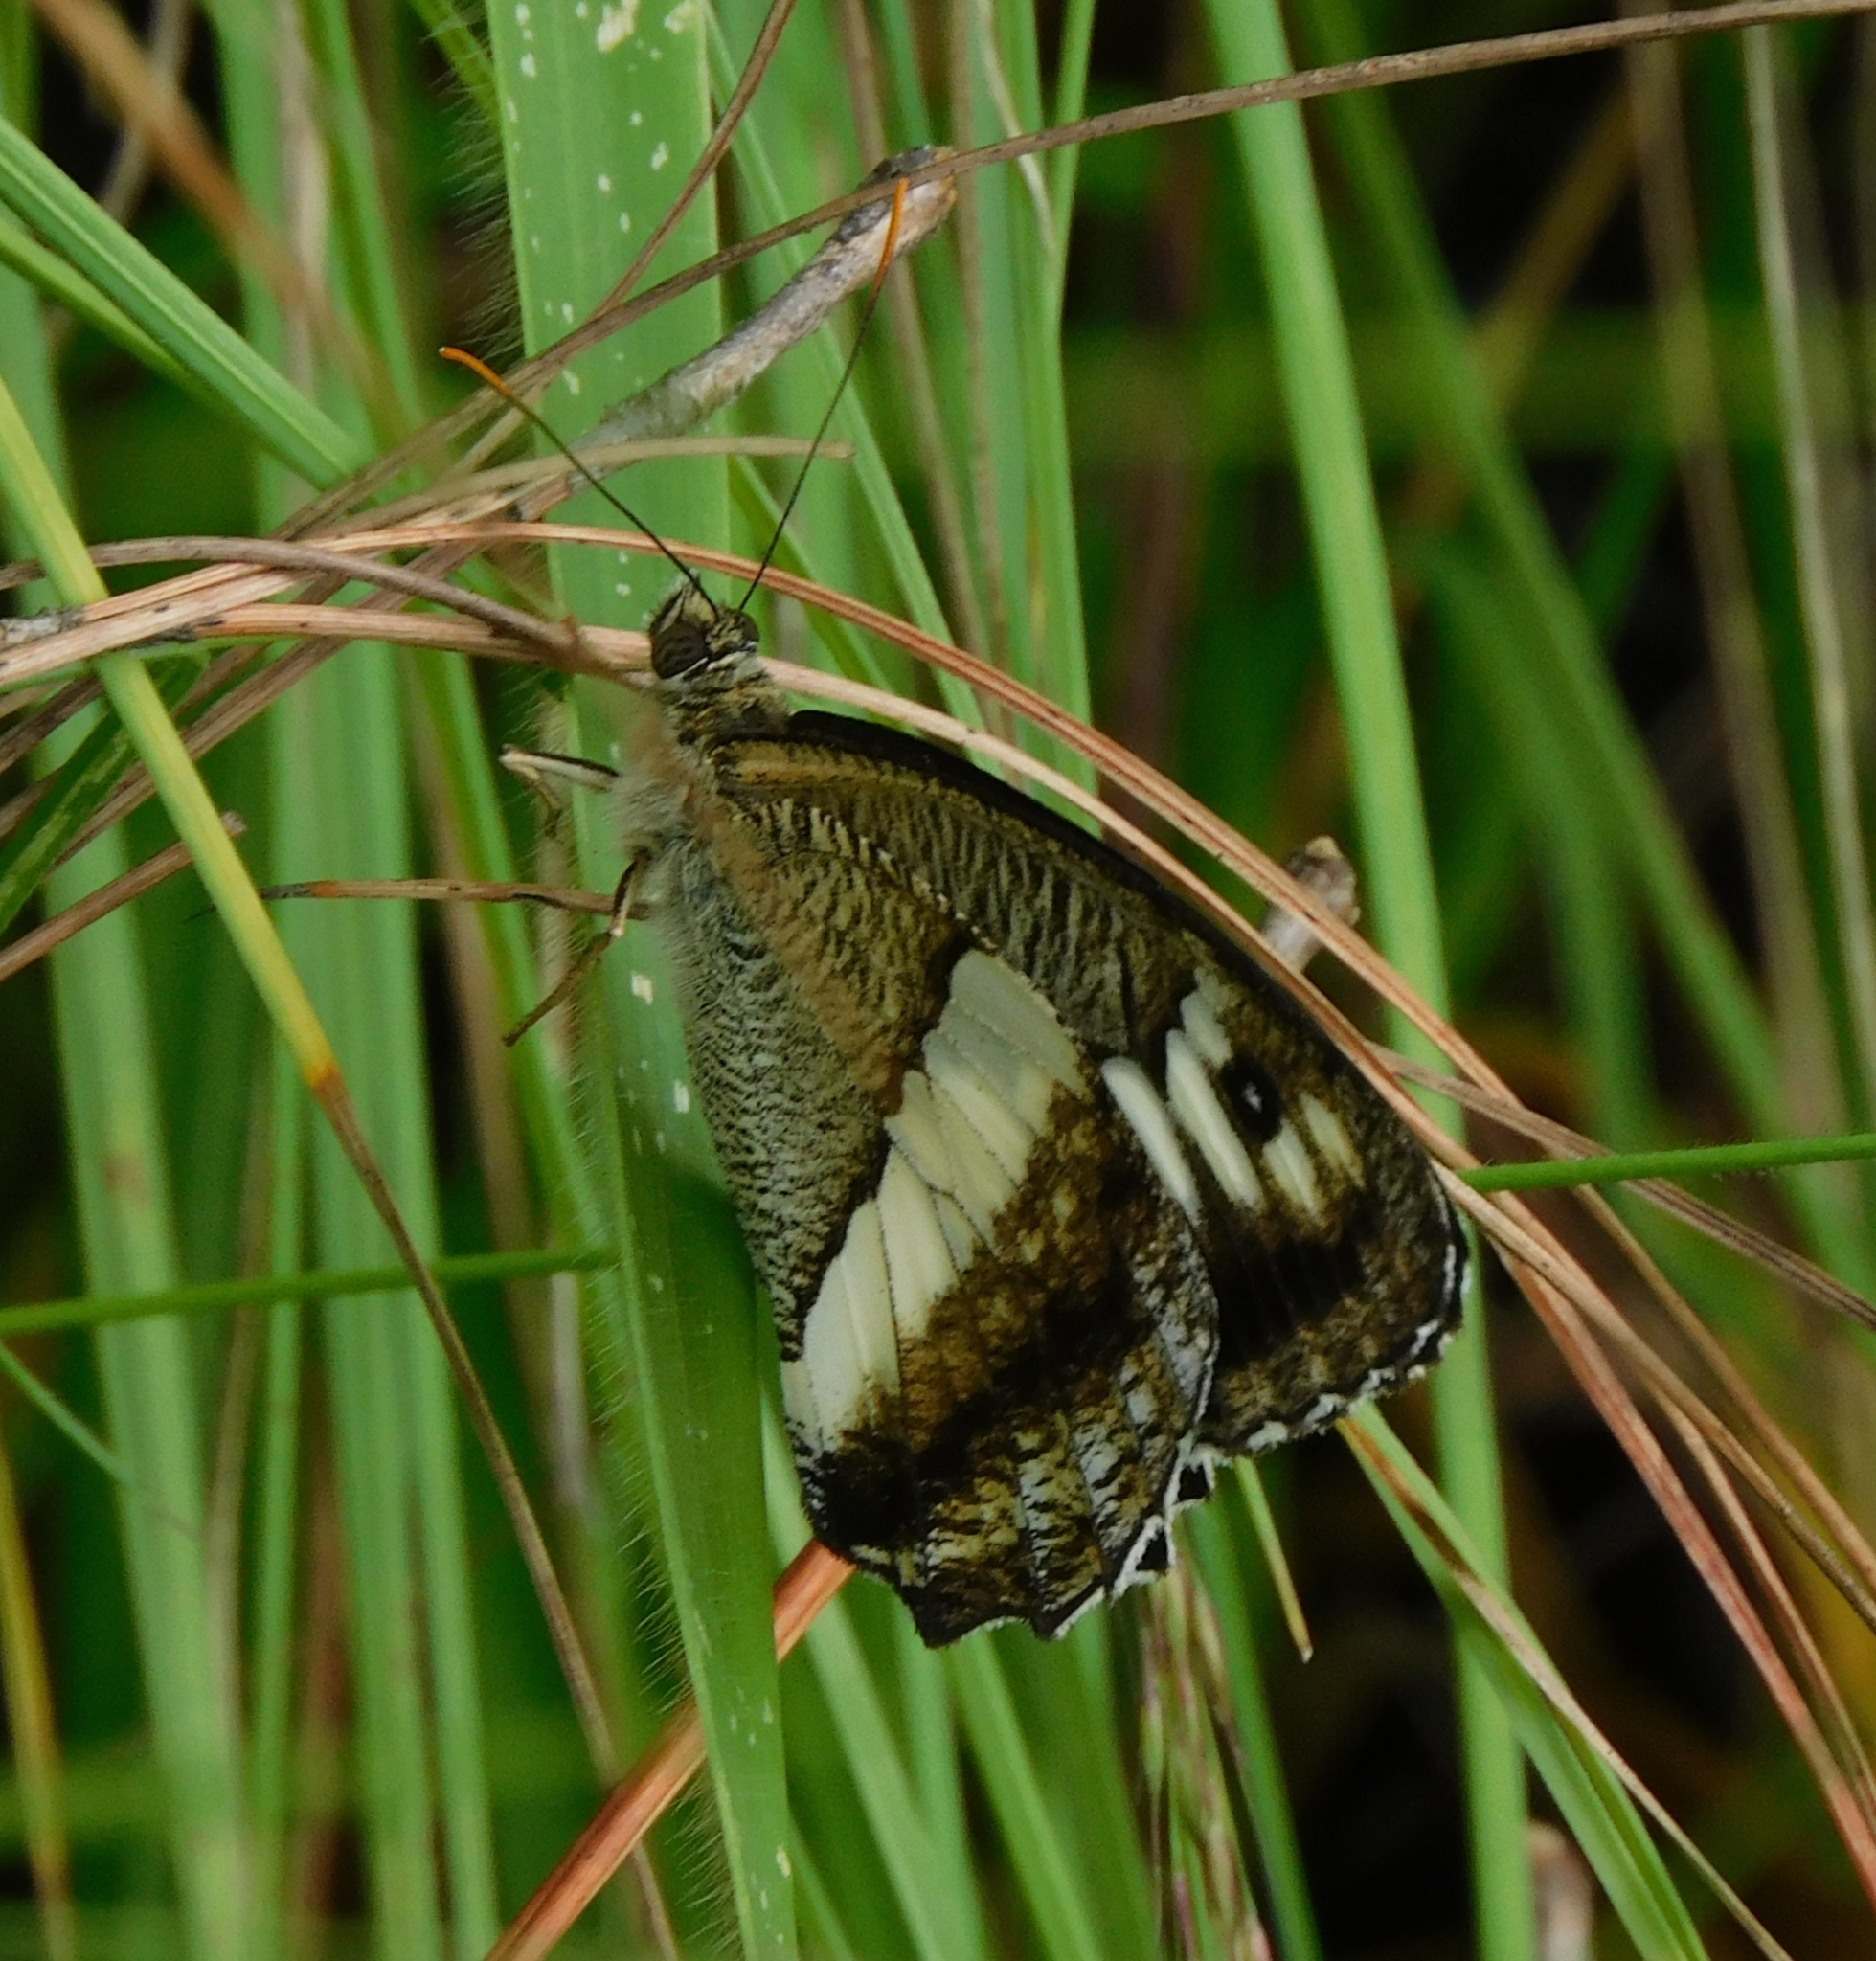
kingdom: Animalia
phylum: Arthropoda
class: Insecta
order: Lepidoptera
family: Nymphalidae
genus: Satyrus
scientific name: Satyrus
